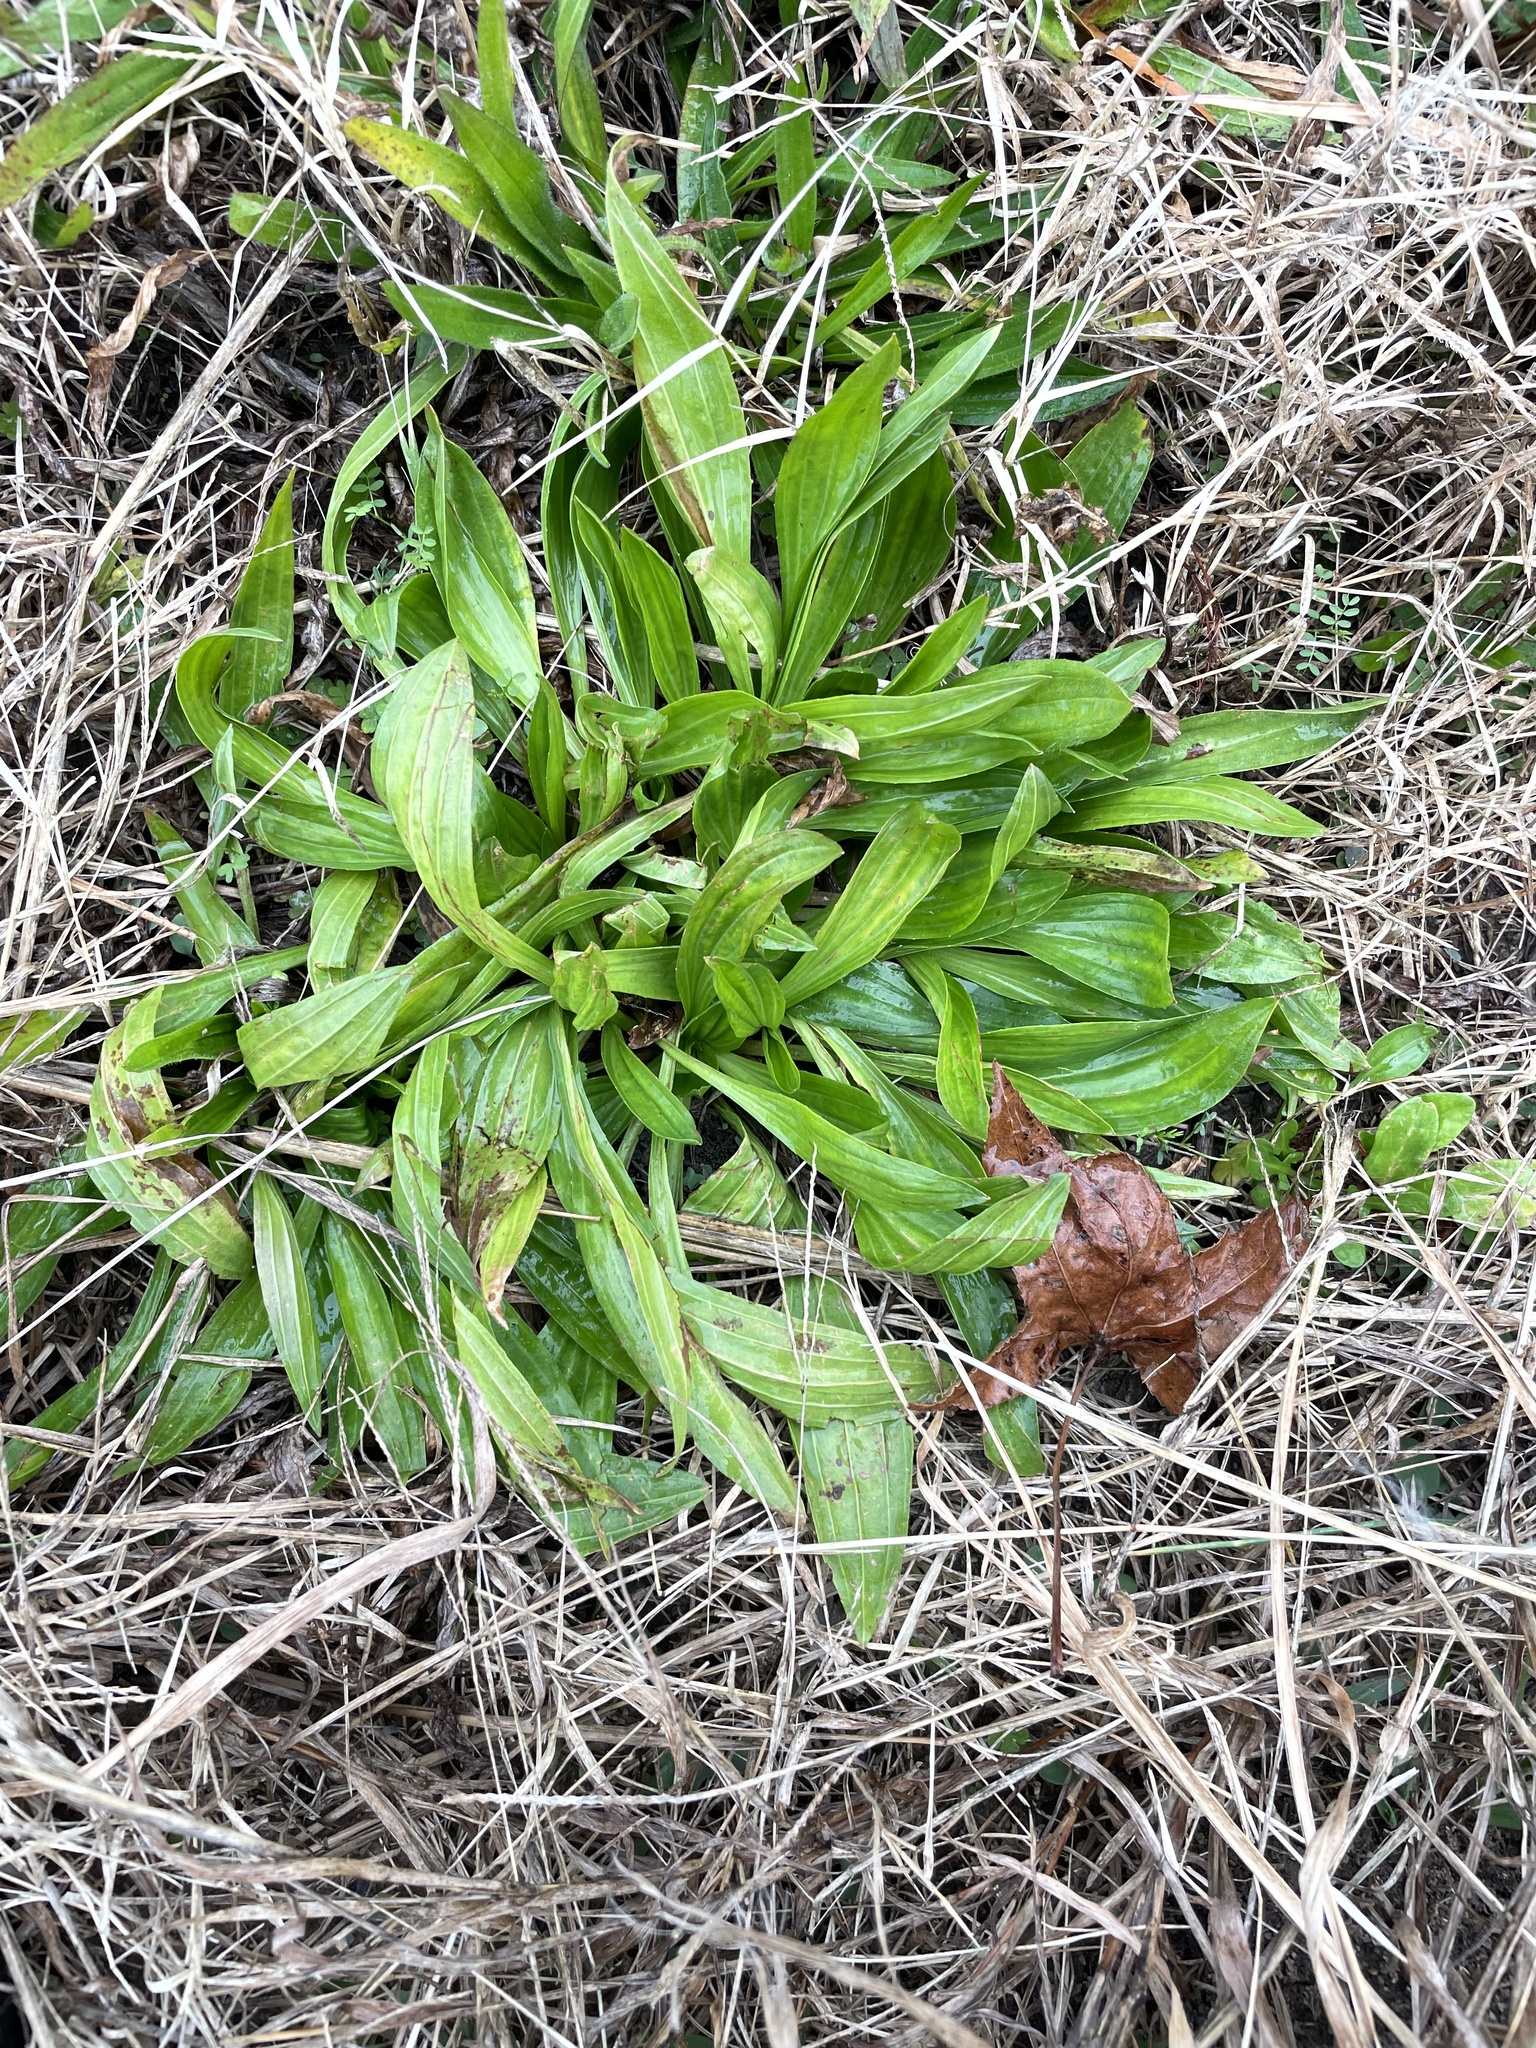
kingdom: Plantae
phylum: Tracheophyta
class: Magnoliopsida
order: Lamiales
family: Plantaginaceae
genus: Plantago
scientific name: Plantago lanceolata
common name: Ribwort plantain
